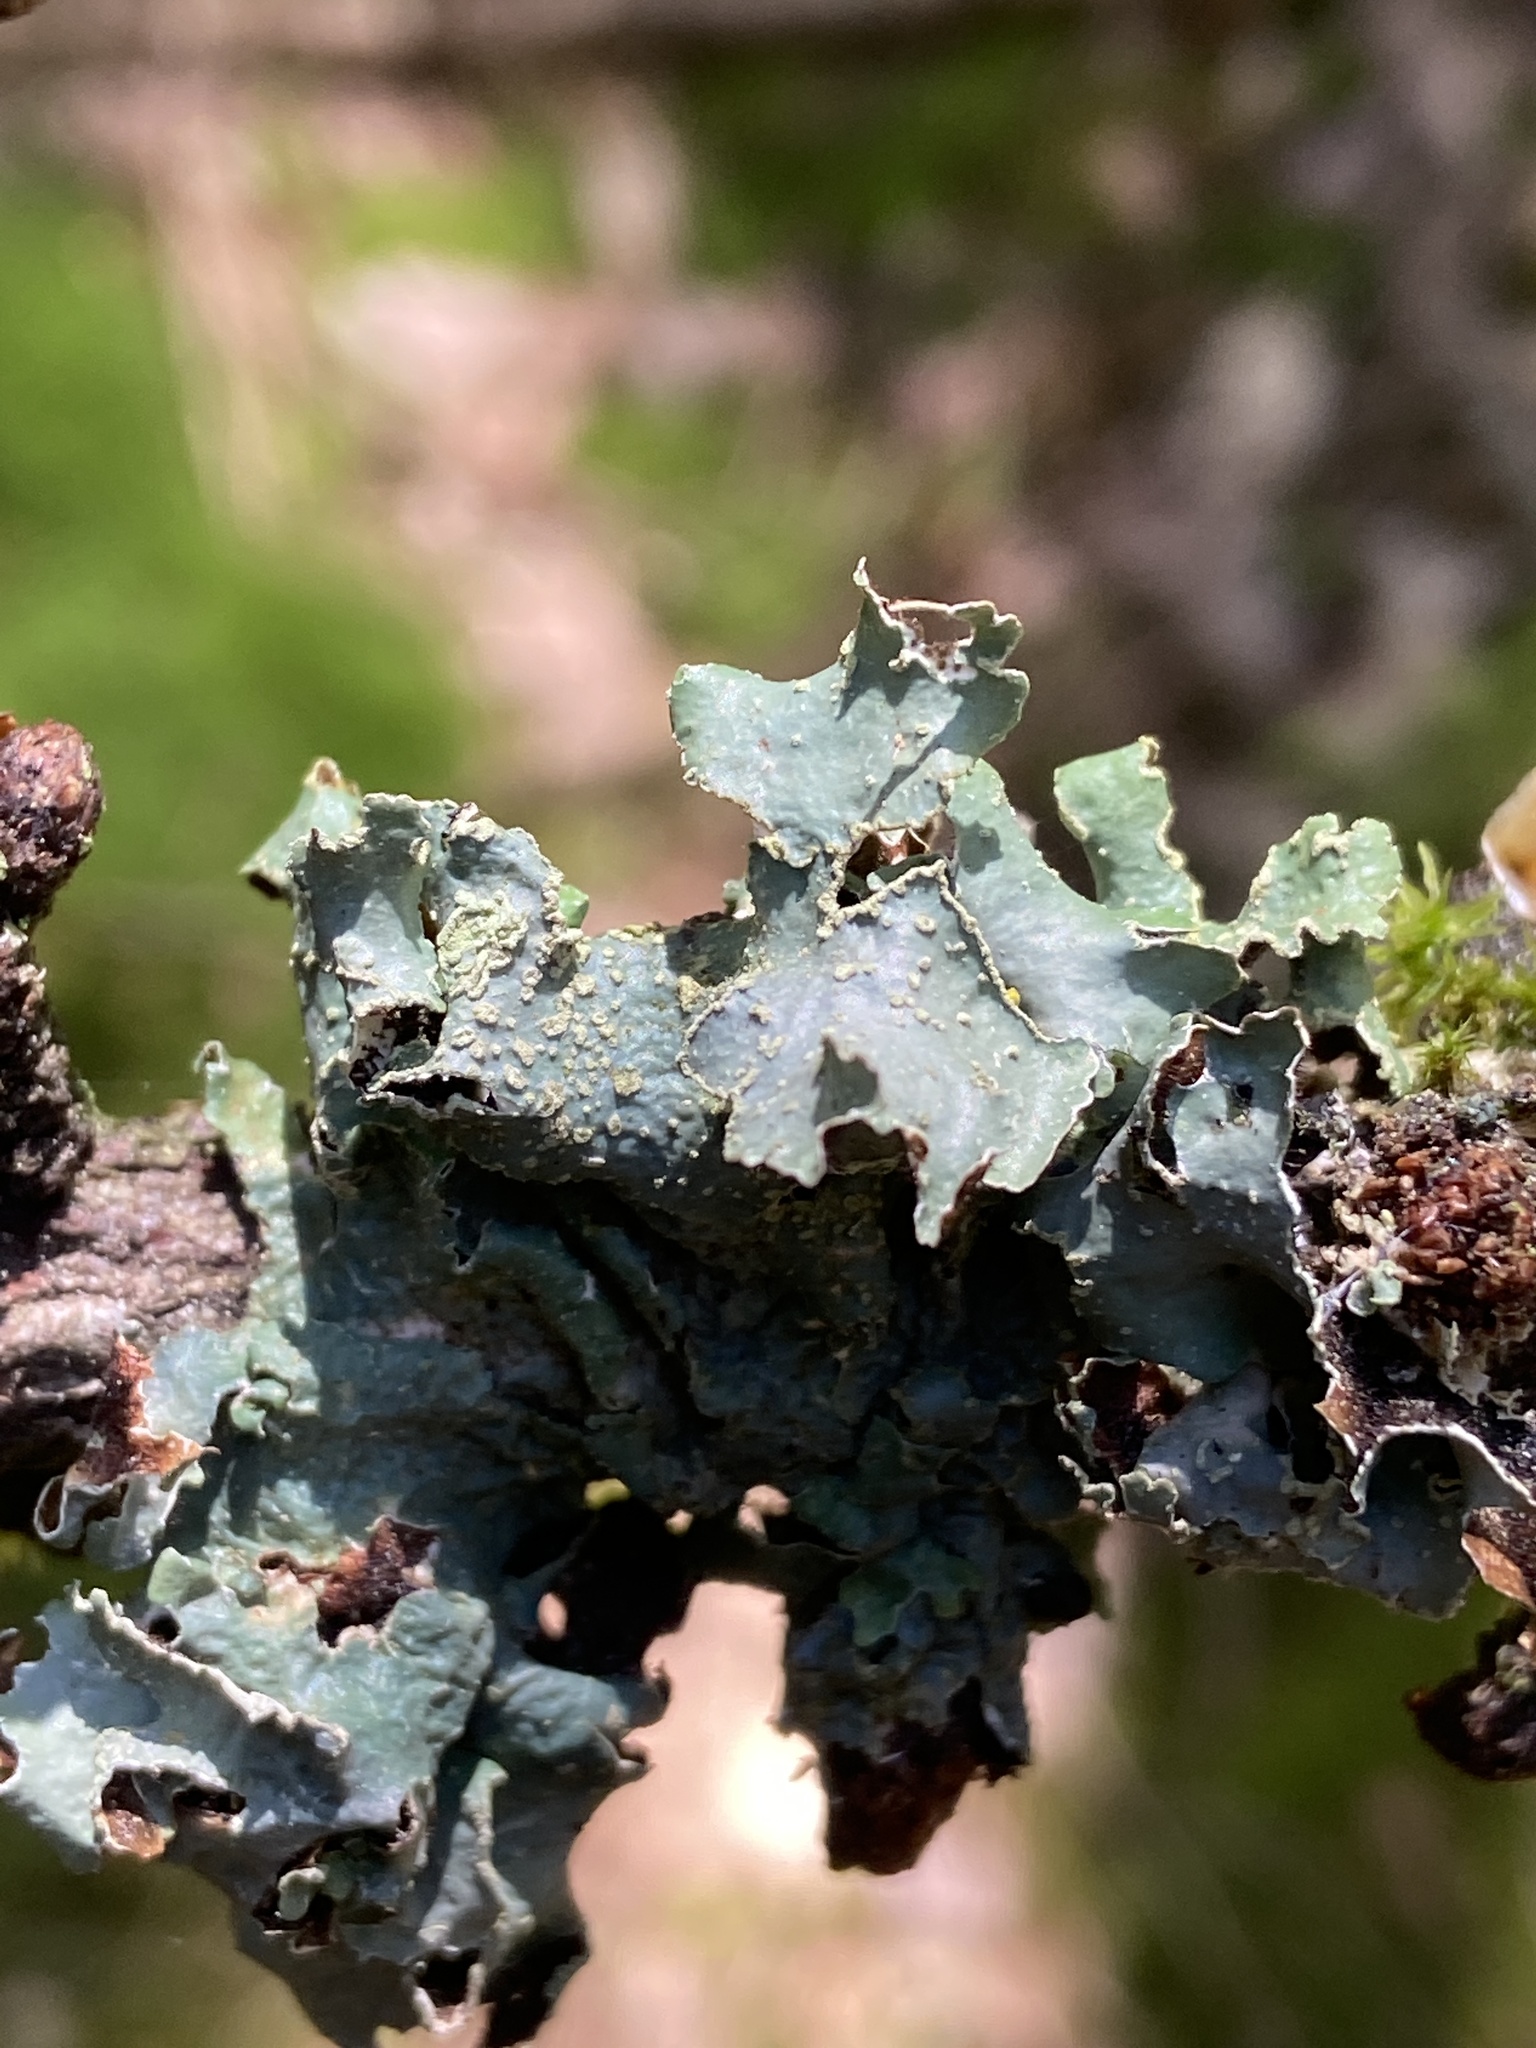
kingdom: Fungi
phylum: Ascomycota
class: Lecanoromycetes
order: Lecanorales
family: Parmeliaceae
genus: Parmelia
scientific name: Parmelia sulcata
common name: Netted shield lichen
